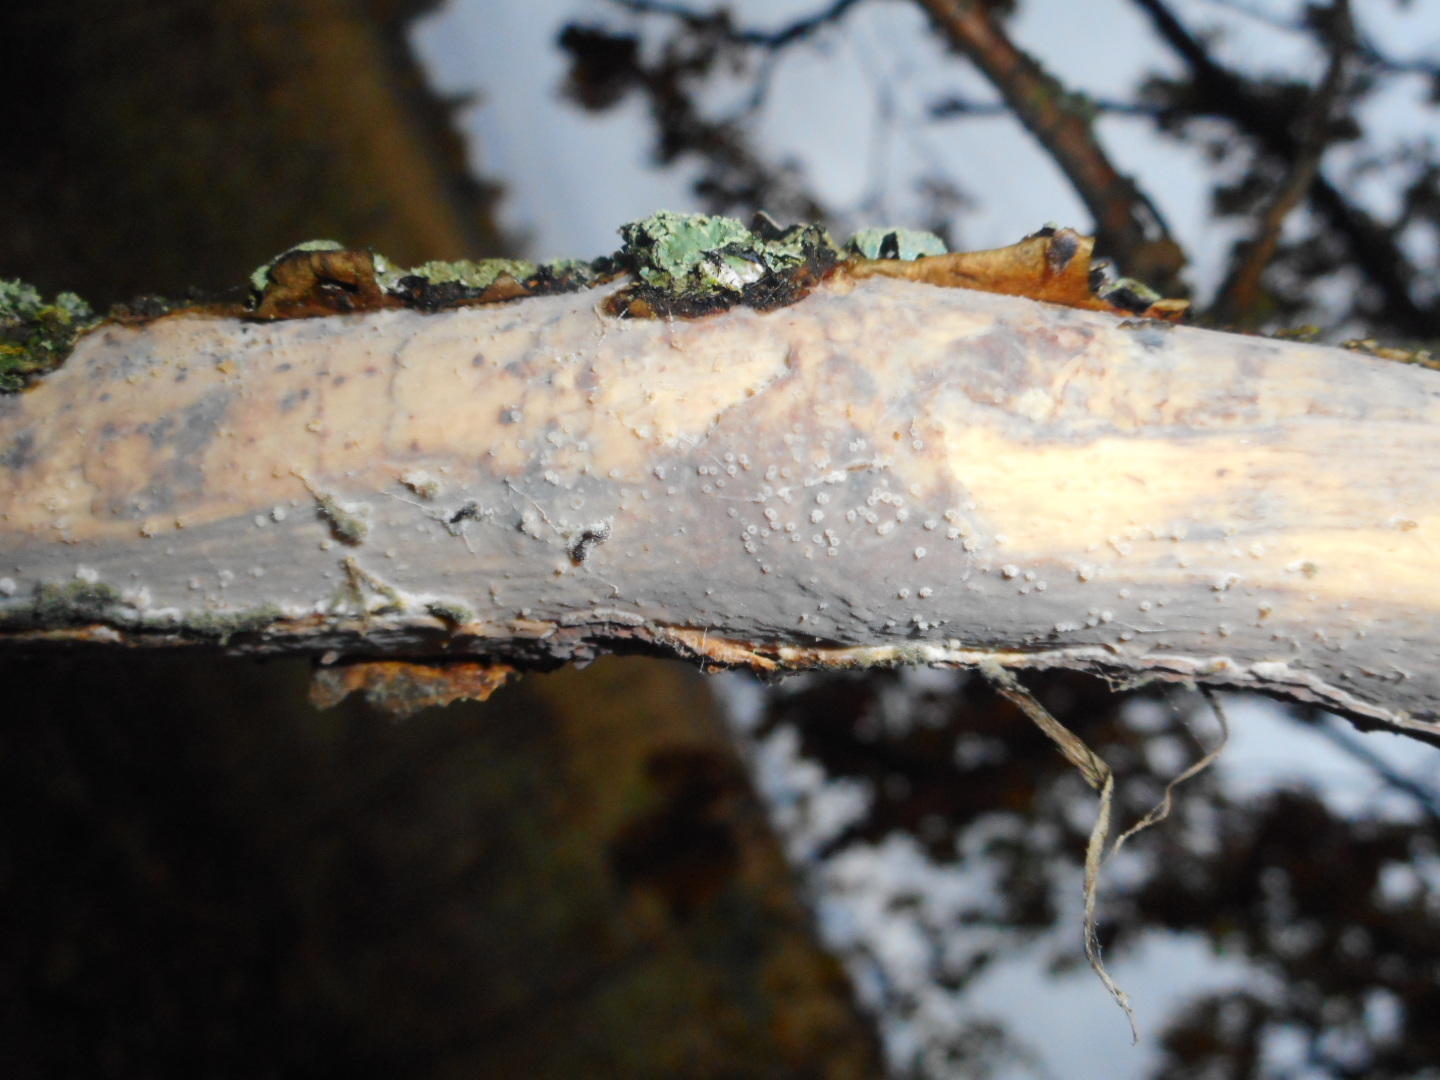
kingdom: Fungi
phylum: Basidiomycota
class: Agaricomycetes
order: Corticiales
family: Vuilleminiaceae
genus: Vuilleminia
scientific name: Vuilleminia comedens
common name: Waxy crust
